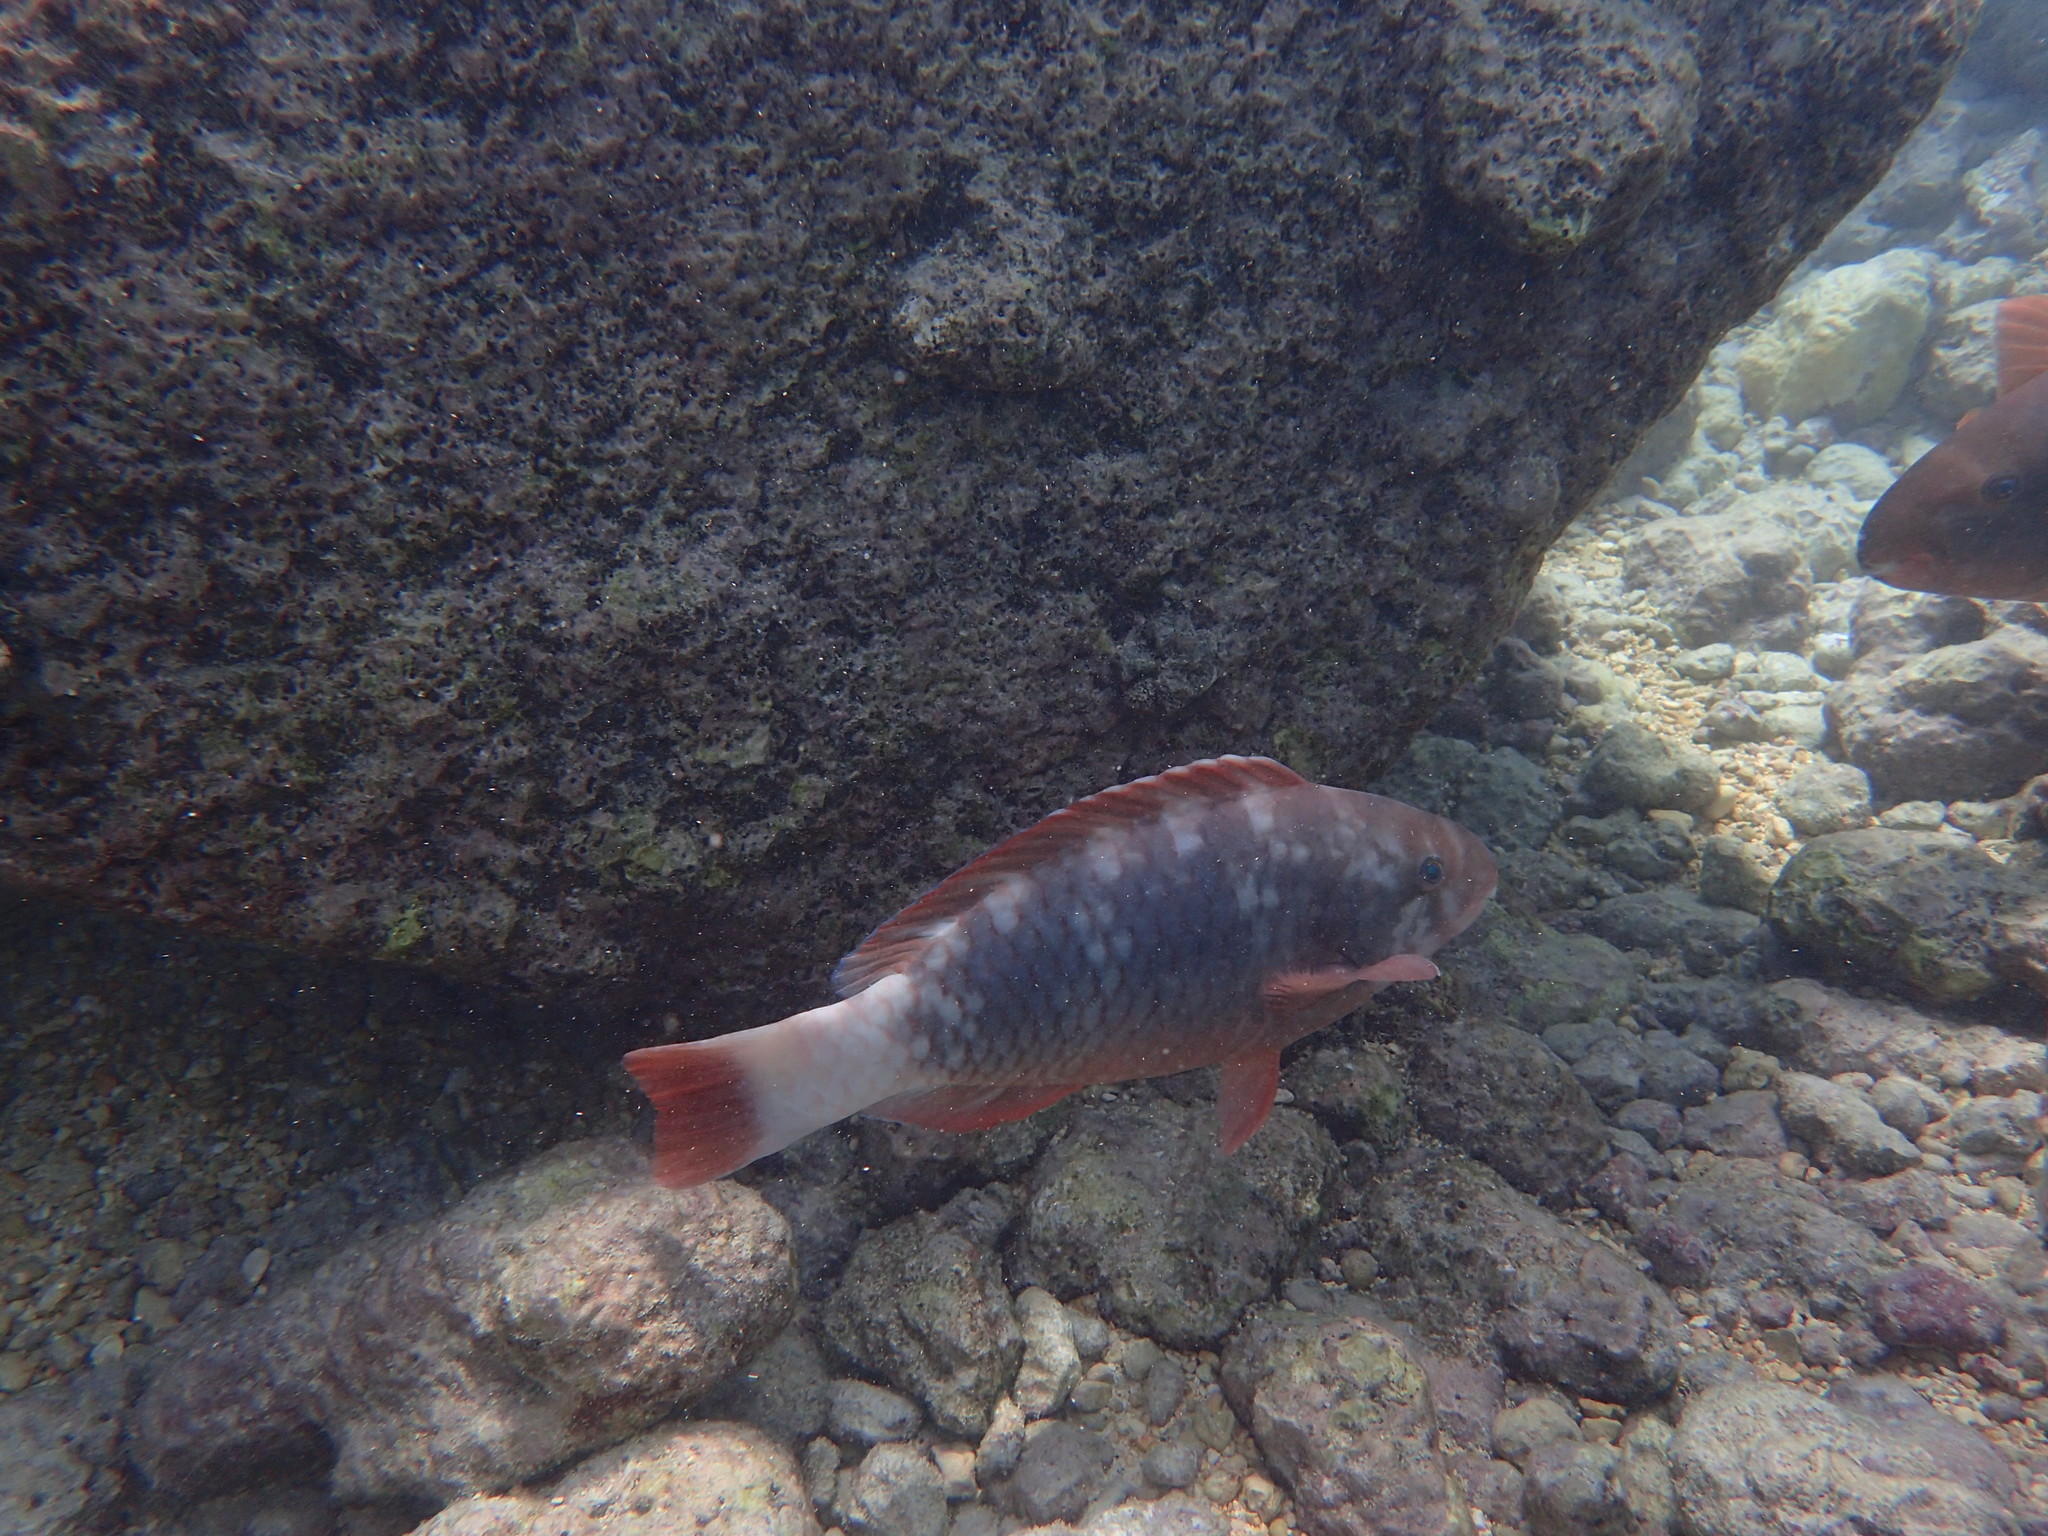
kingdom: Animalia
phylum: Chordata
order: Perciformes
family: Scaridae
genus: Chlorurus
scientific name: Chlorurus perspicillatus
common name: Spectacled parrotfish
